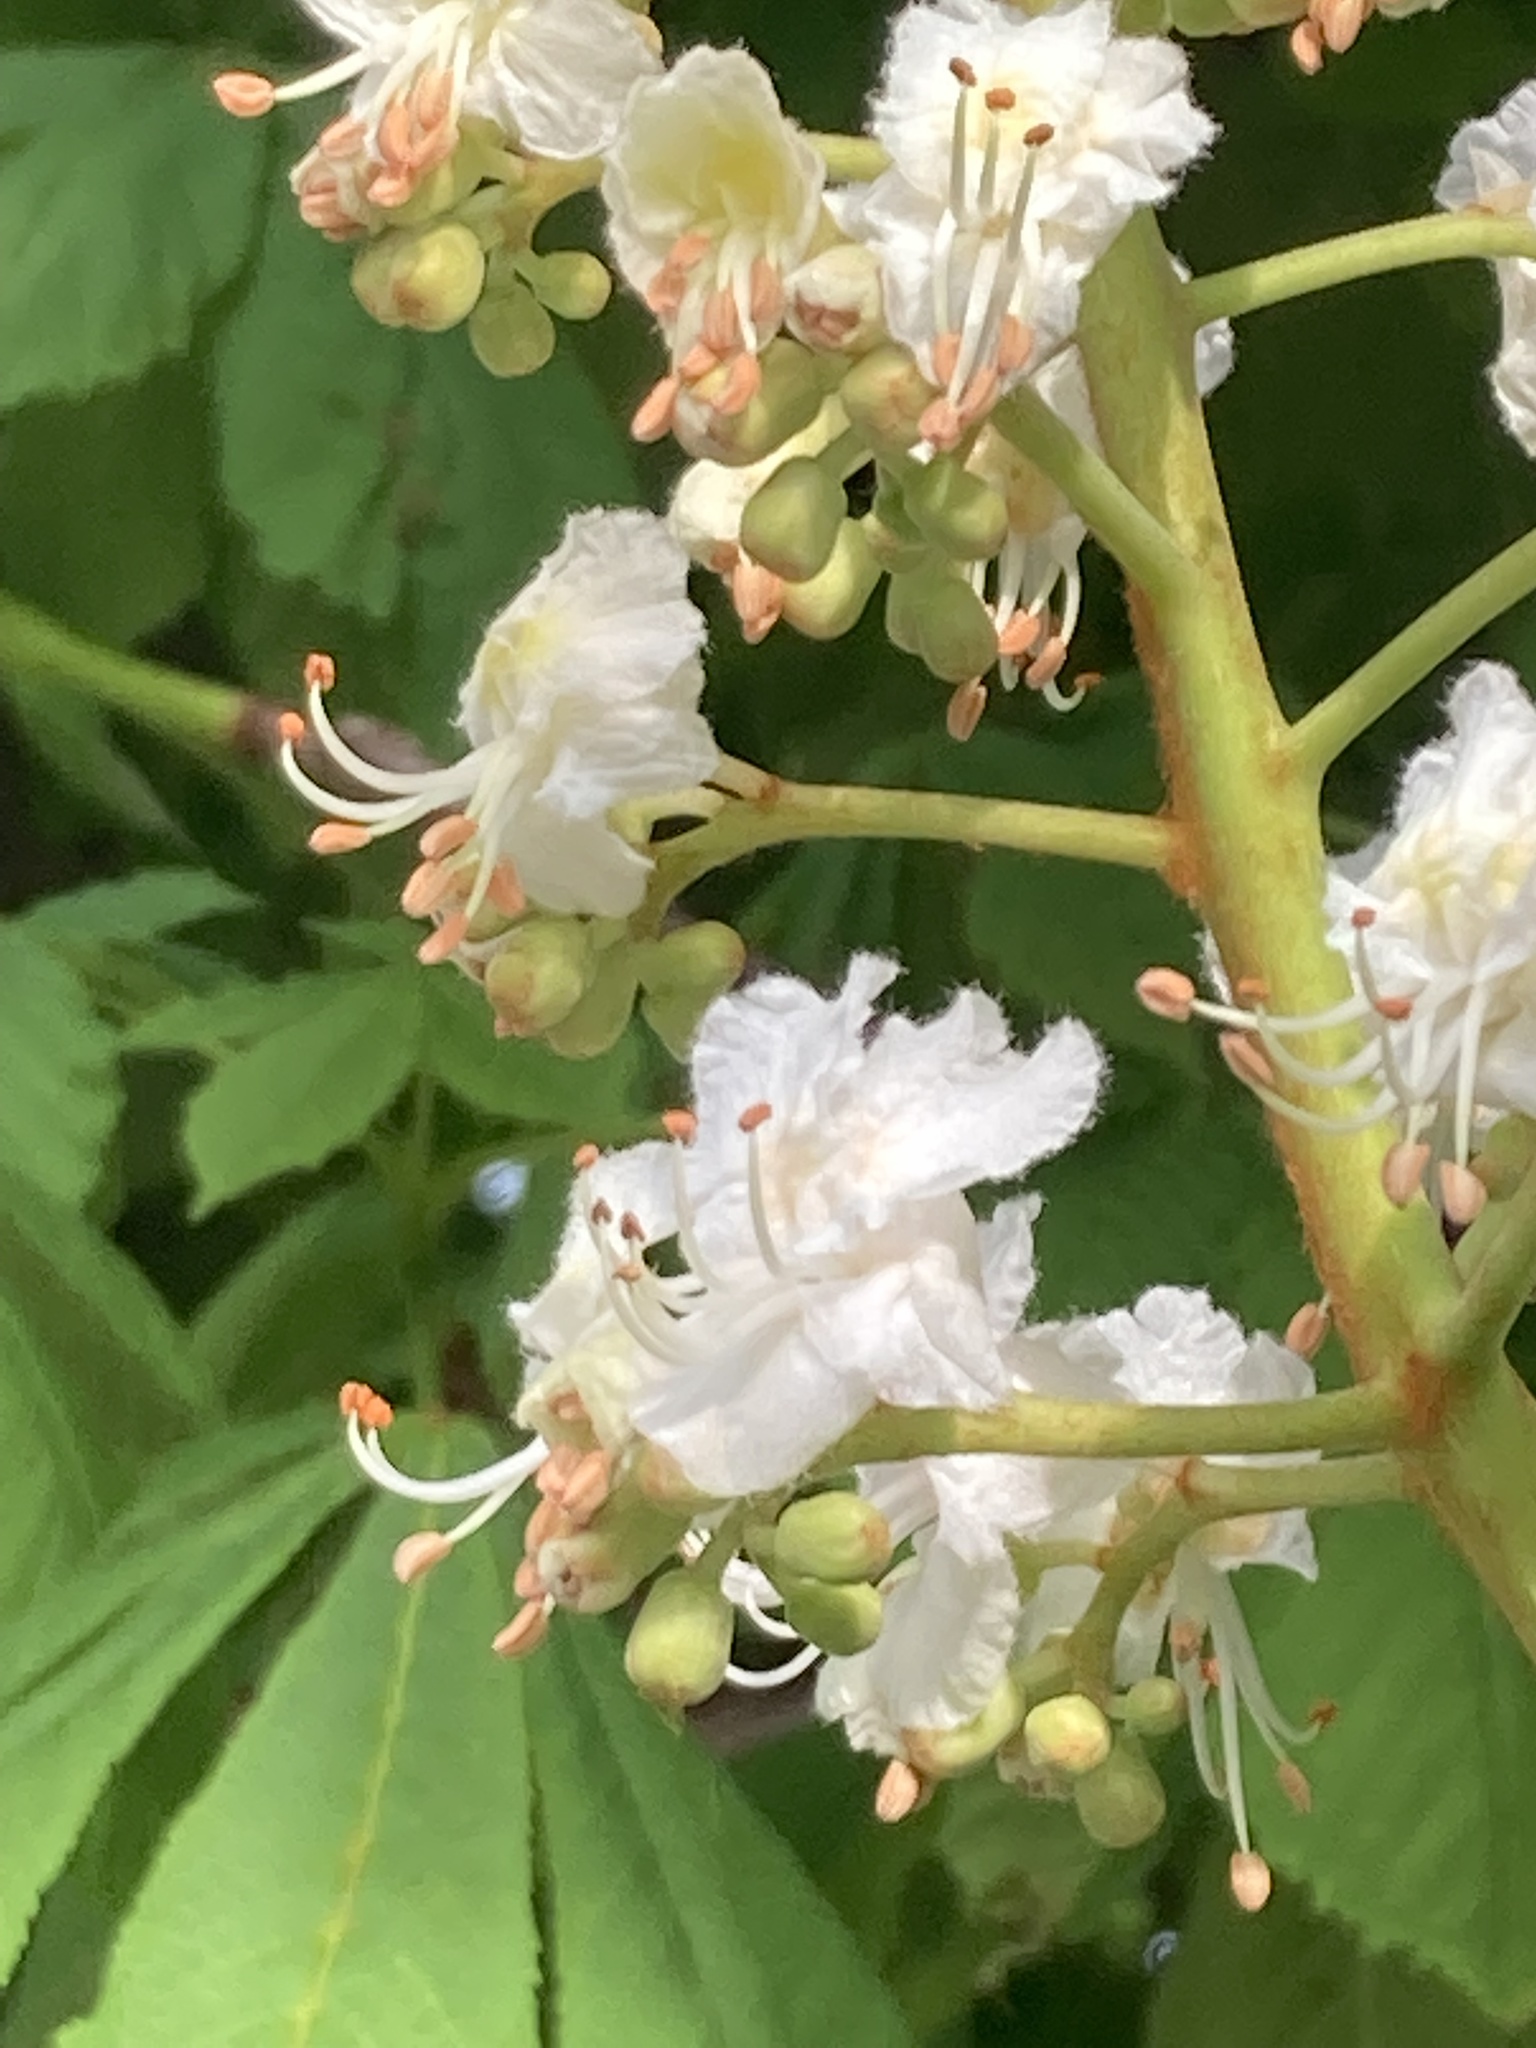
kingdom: Plantae
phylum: Tracheophyta
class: Magnoliopsida
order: Sapindales
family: Sapindaceae
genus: Aesculus
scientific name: Aesculus hippocastanum
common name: Horse-chestnut
